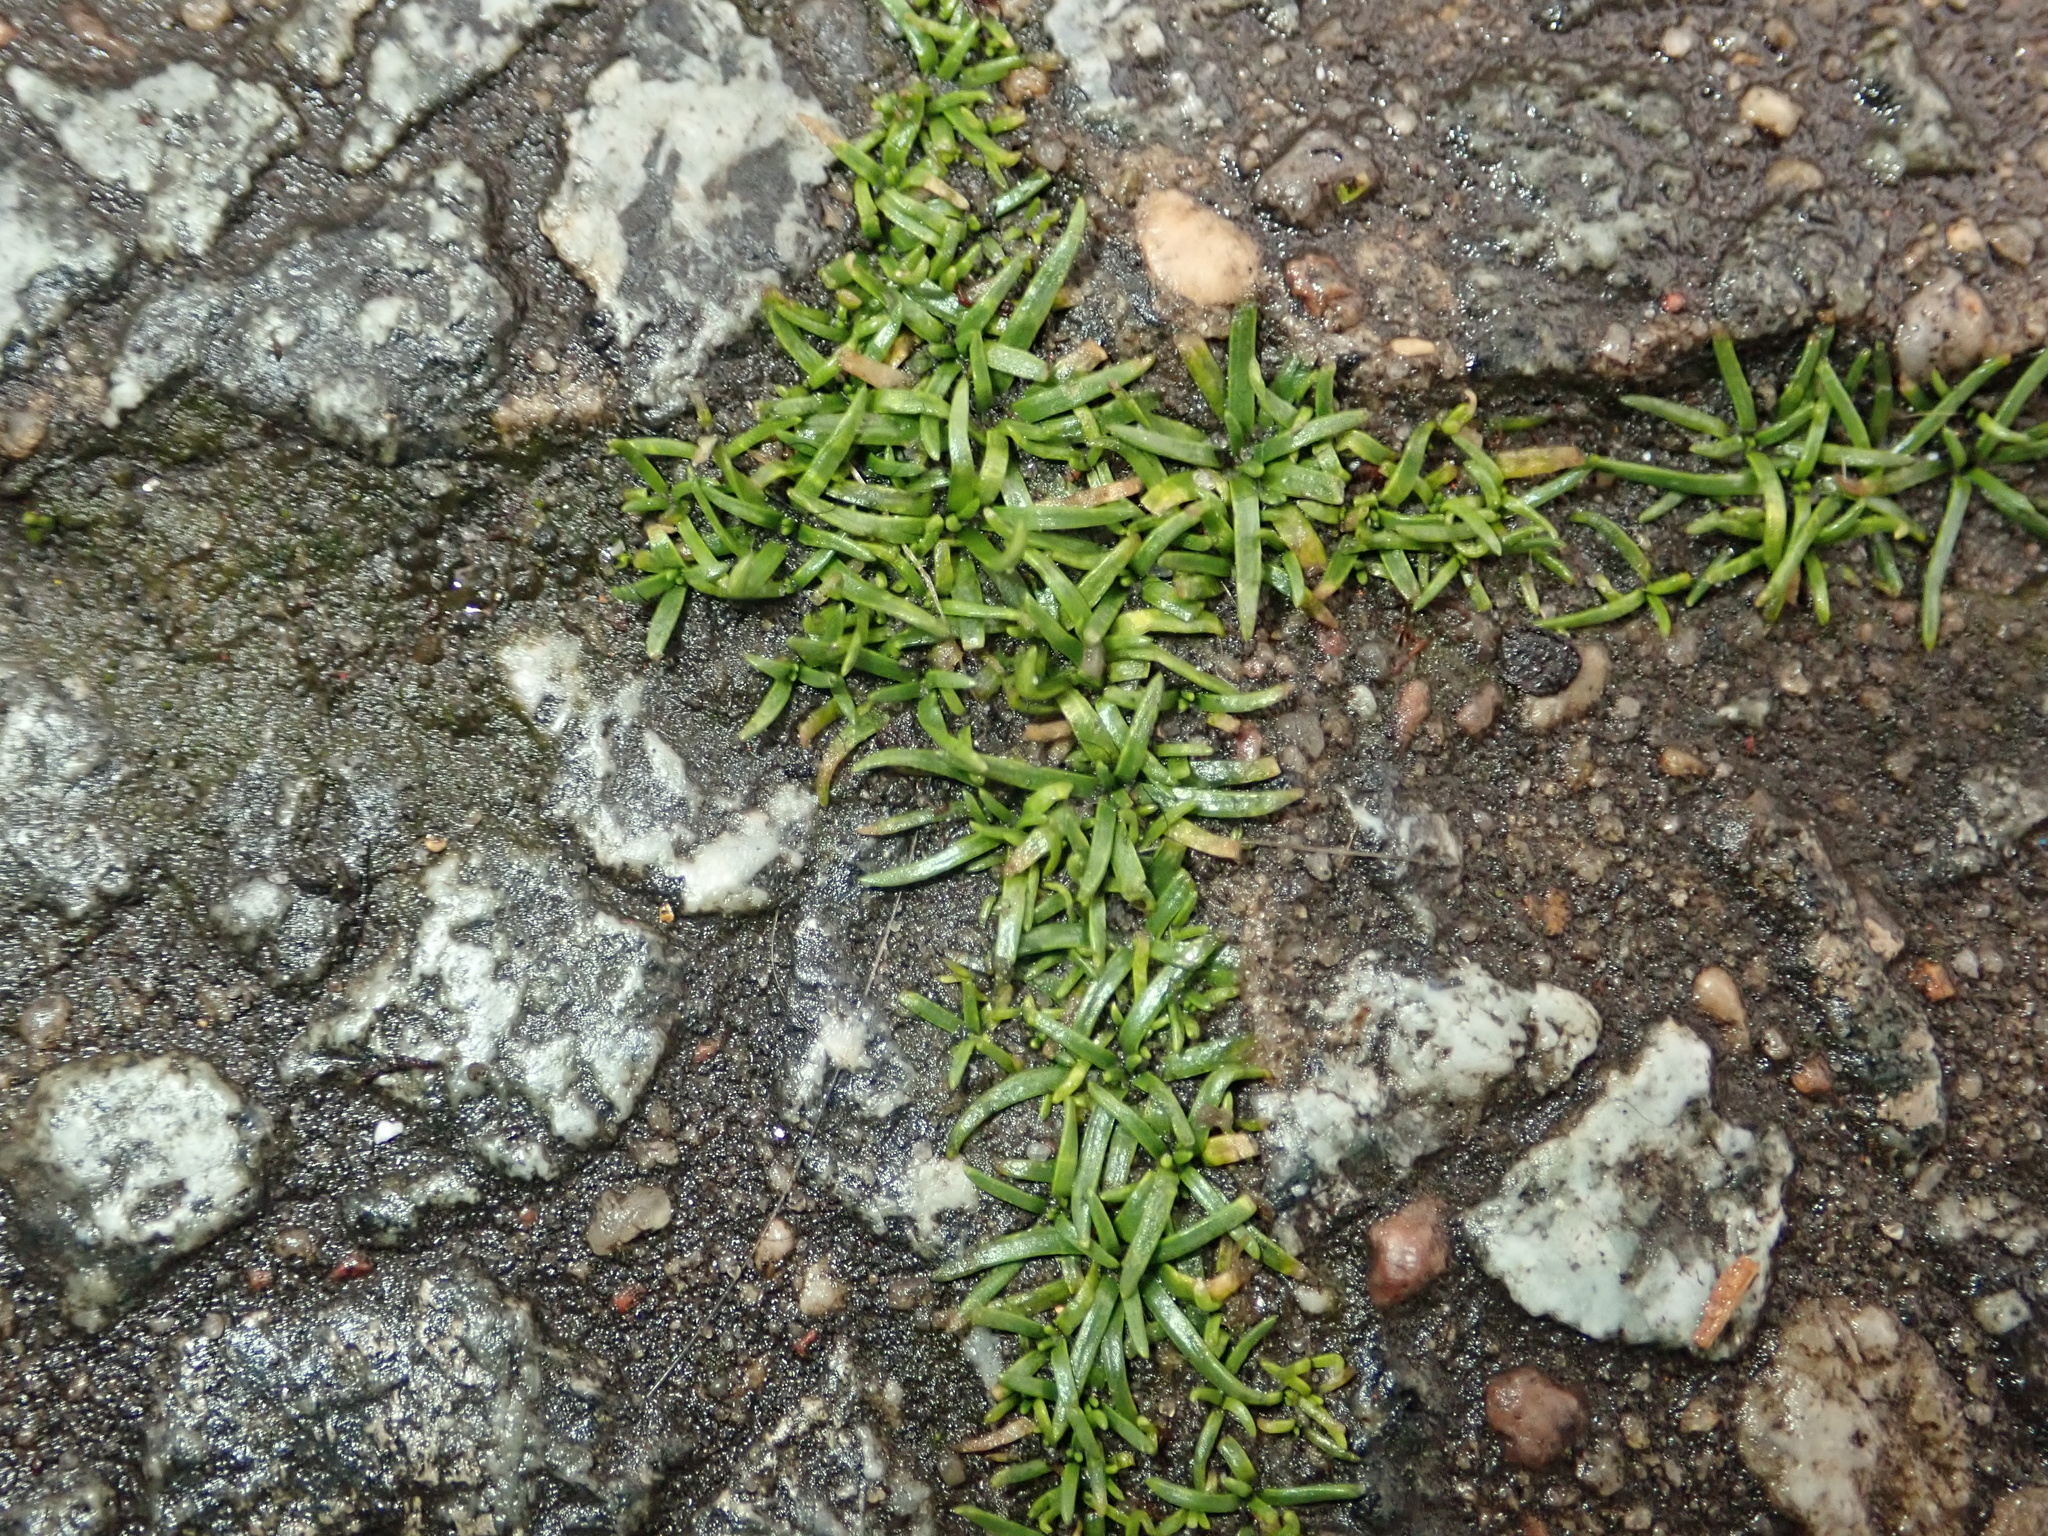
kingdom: Plantae
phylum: Tracheophyta
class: Magnoliopsida
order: Caryophyllales
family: Caryophyllaceae
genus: Sagina
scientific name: Sagina procumbens
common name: Procumbent pearlwort
